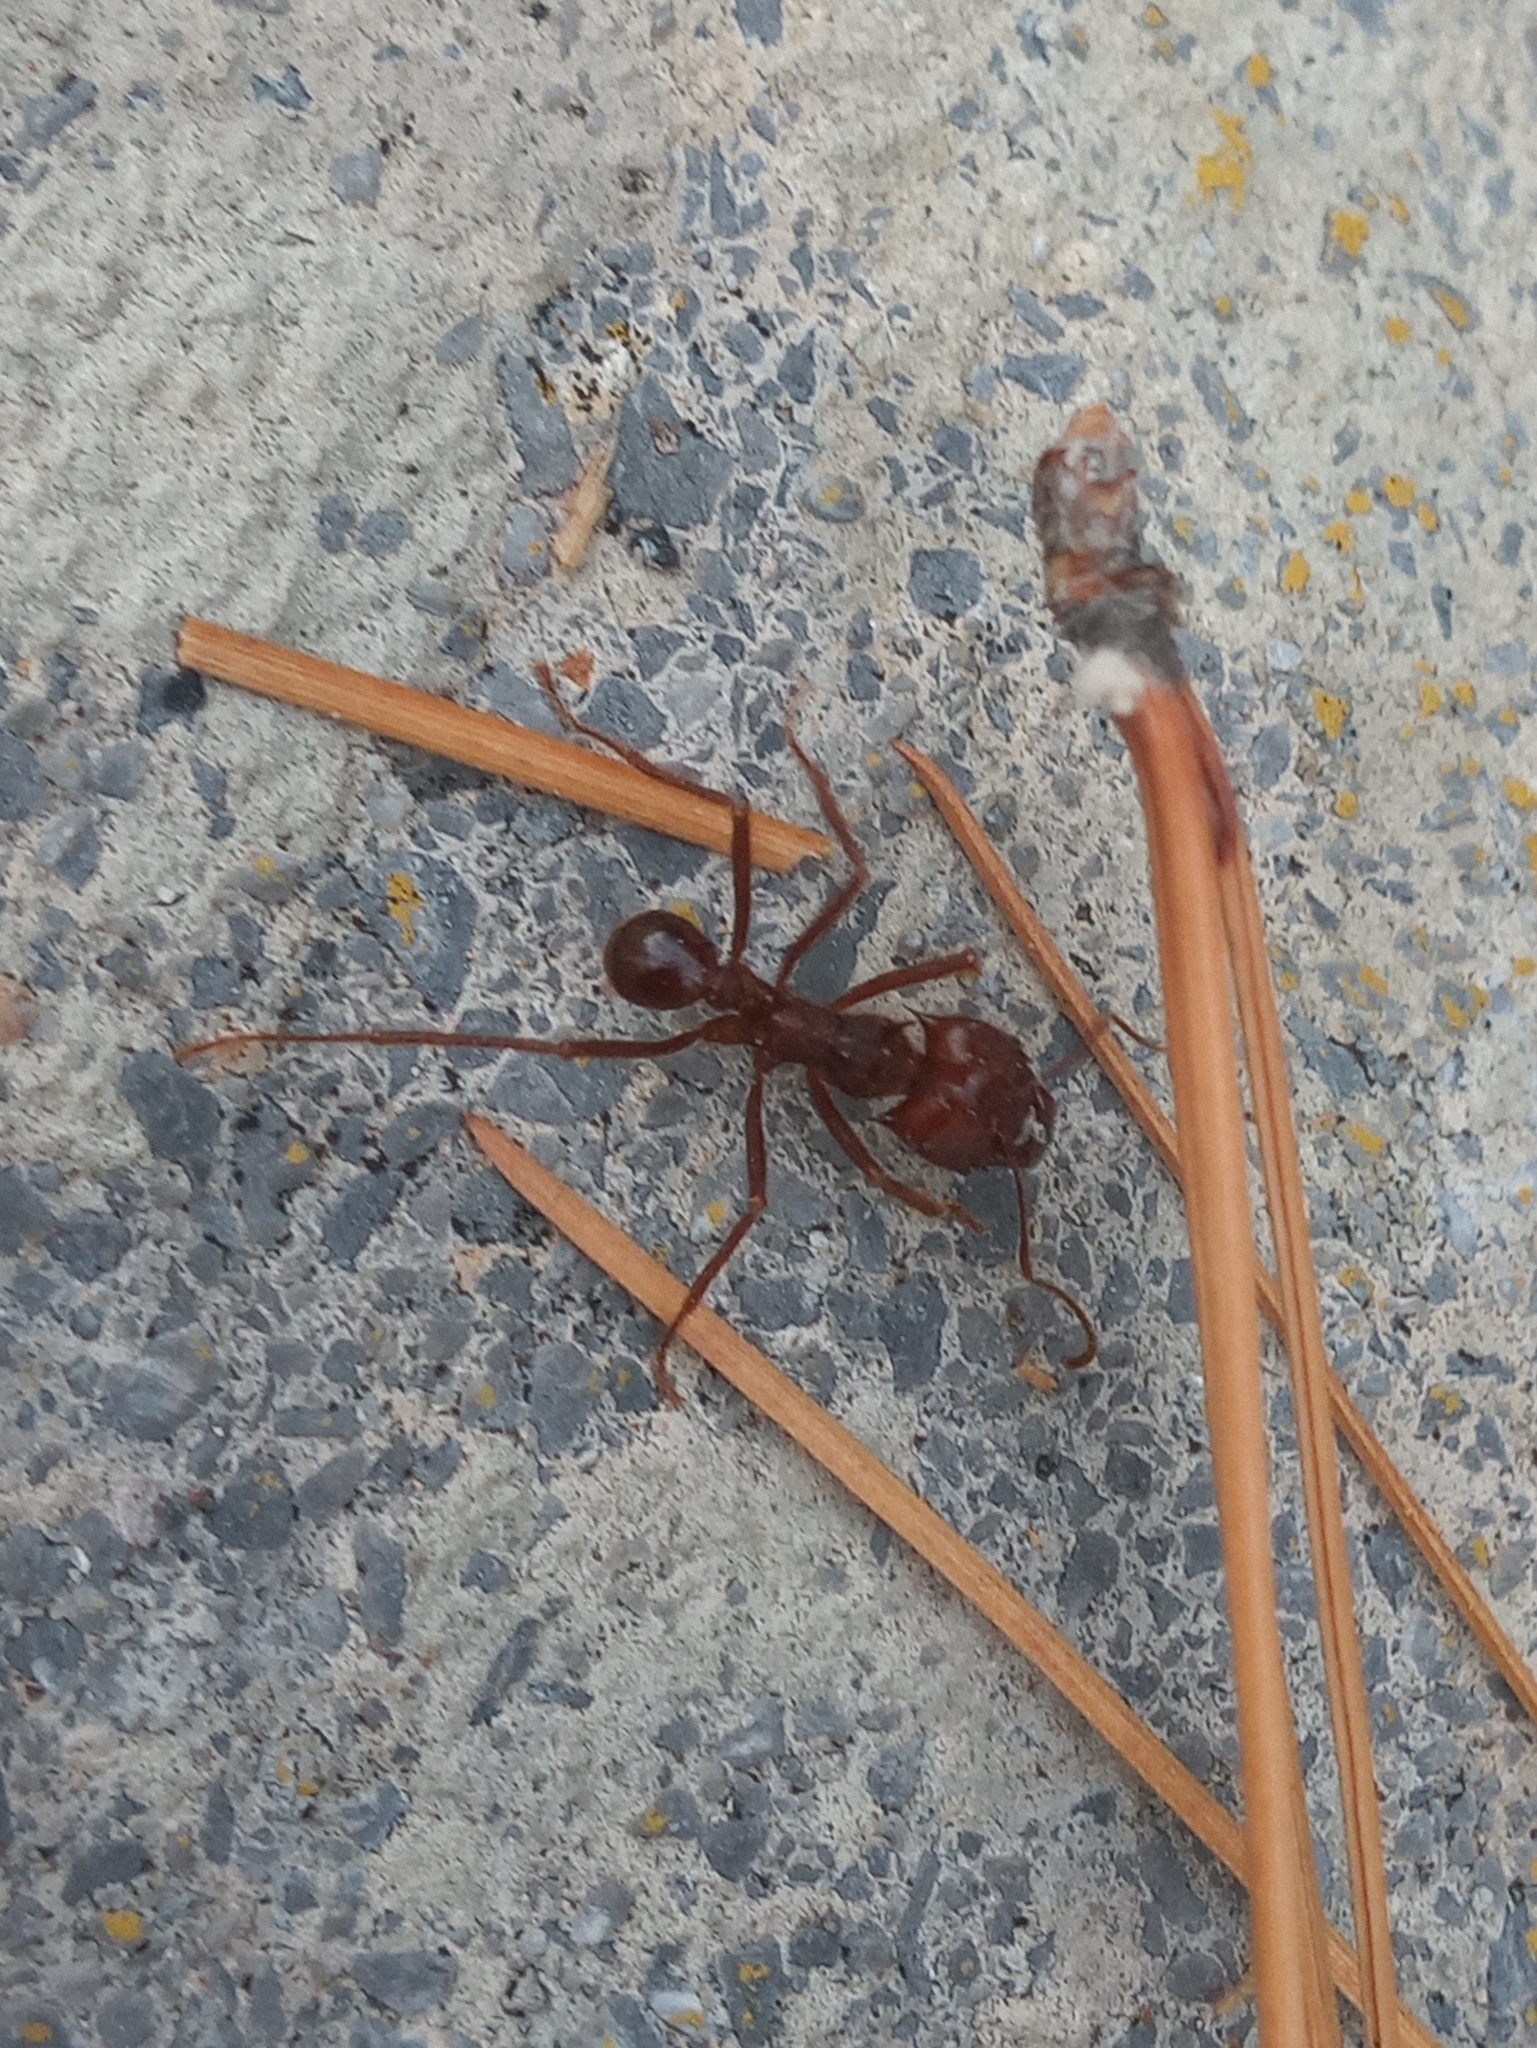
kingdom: Animalia
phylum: Arthropoda
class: Insecta
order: Hymenoptera
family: Formicidae
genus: Atta
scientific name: Atta mexicana
